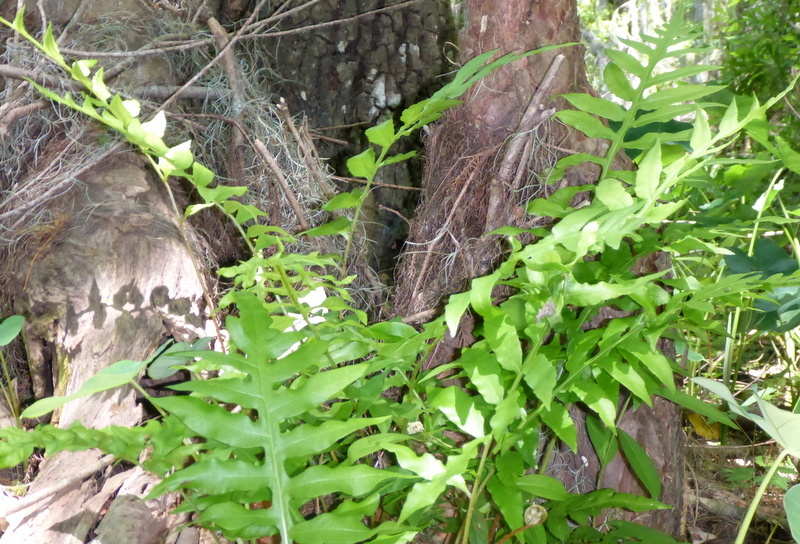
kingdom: Plantae
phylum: Tracheophyta
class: Polypodiopsida
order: Polypodiales
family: Blechnaceae
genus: Lorinseria
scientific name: Lorinseria areolata
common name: Dwarf chain fern
